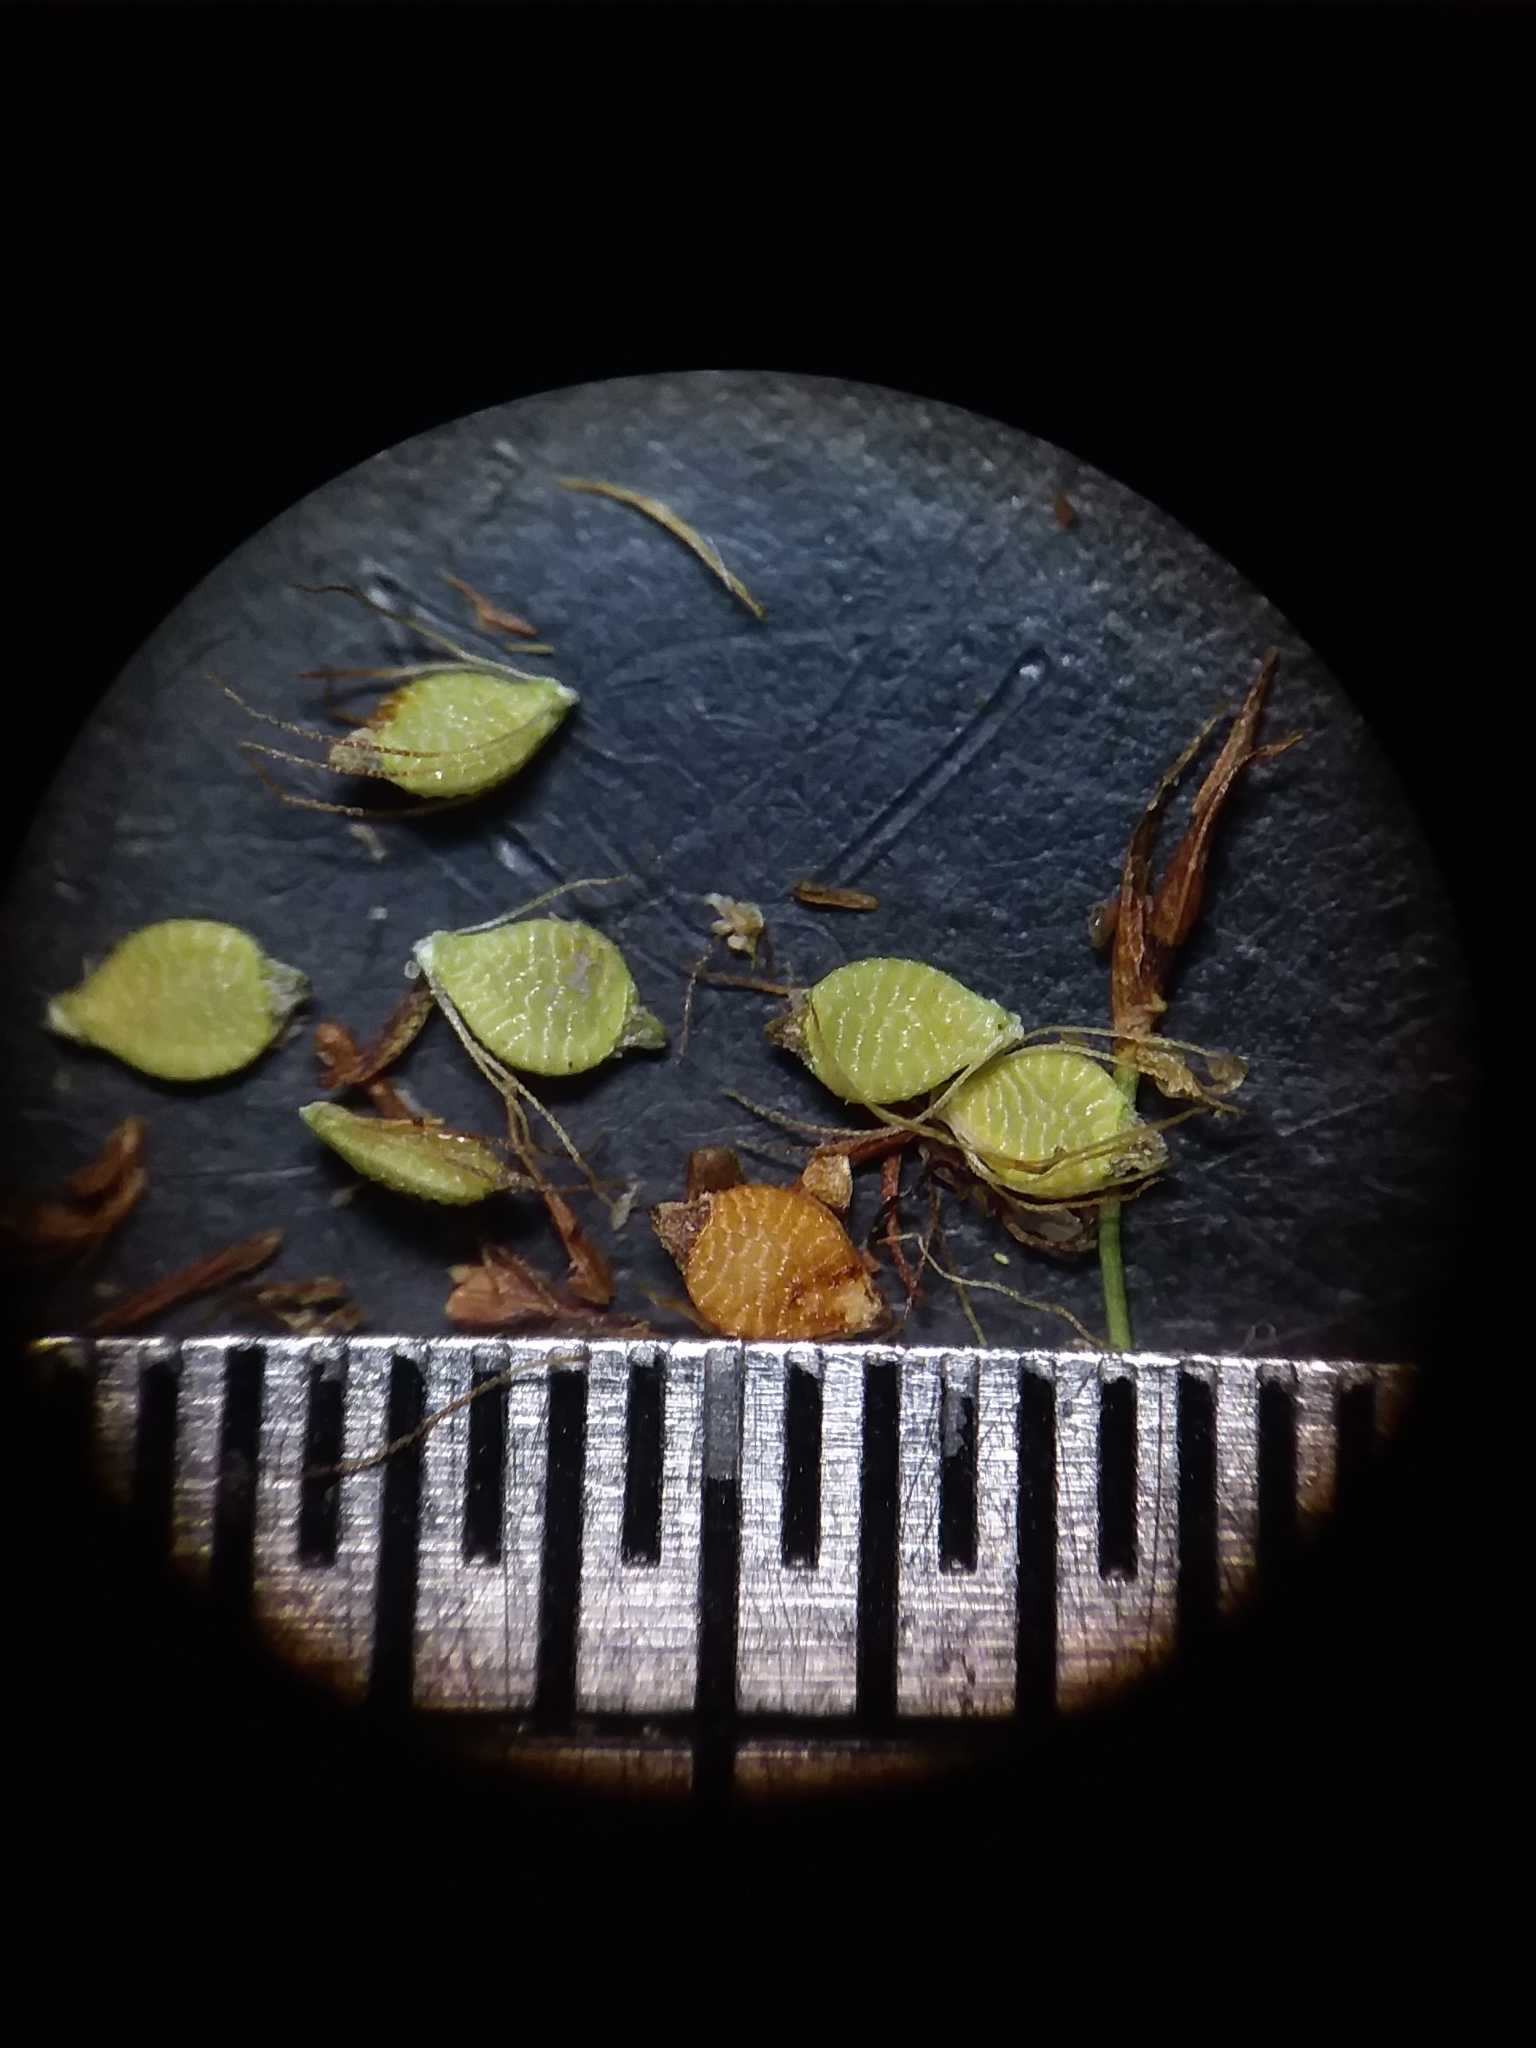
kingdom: Plantae
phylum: Tracheophyta
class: Liliopsida
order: Poales
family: Cyperaceae
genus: Rhynchospora
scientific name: Rhynchospora elliottii
